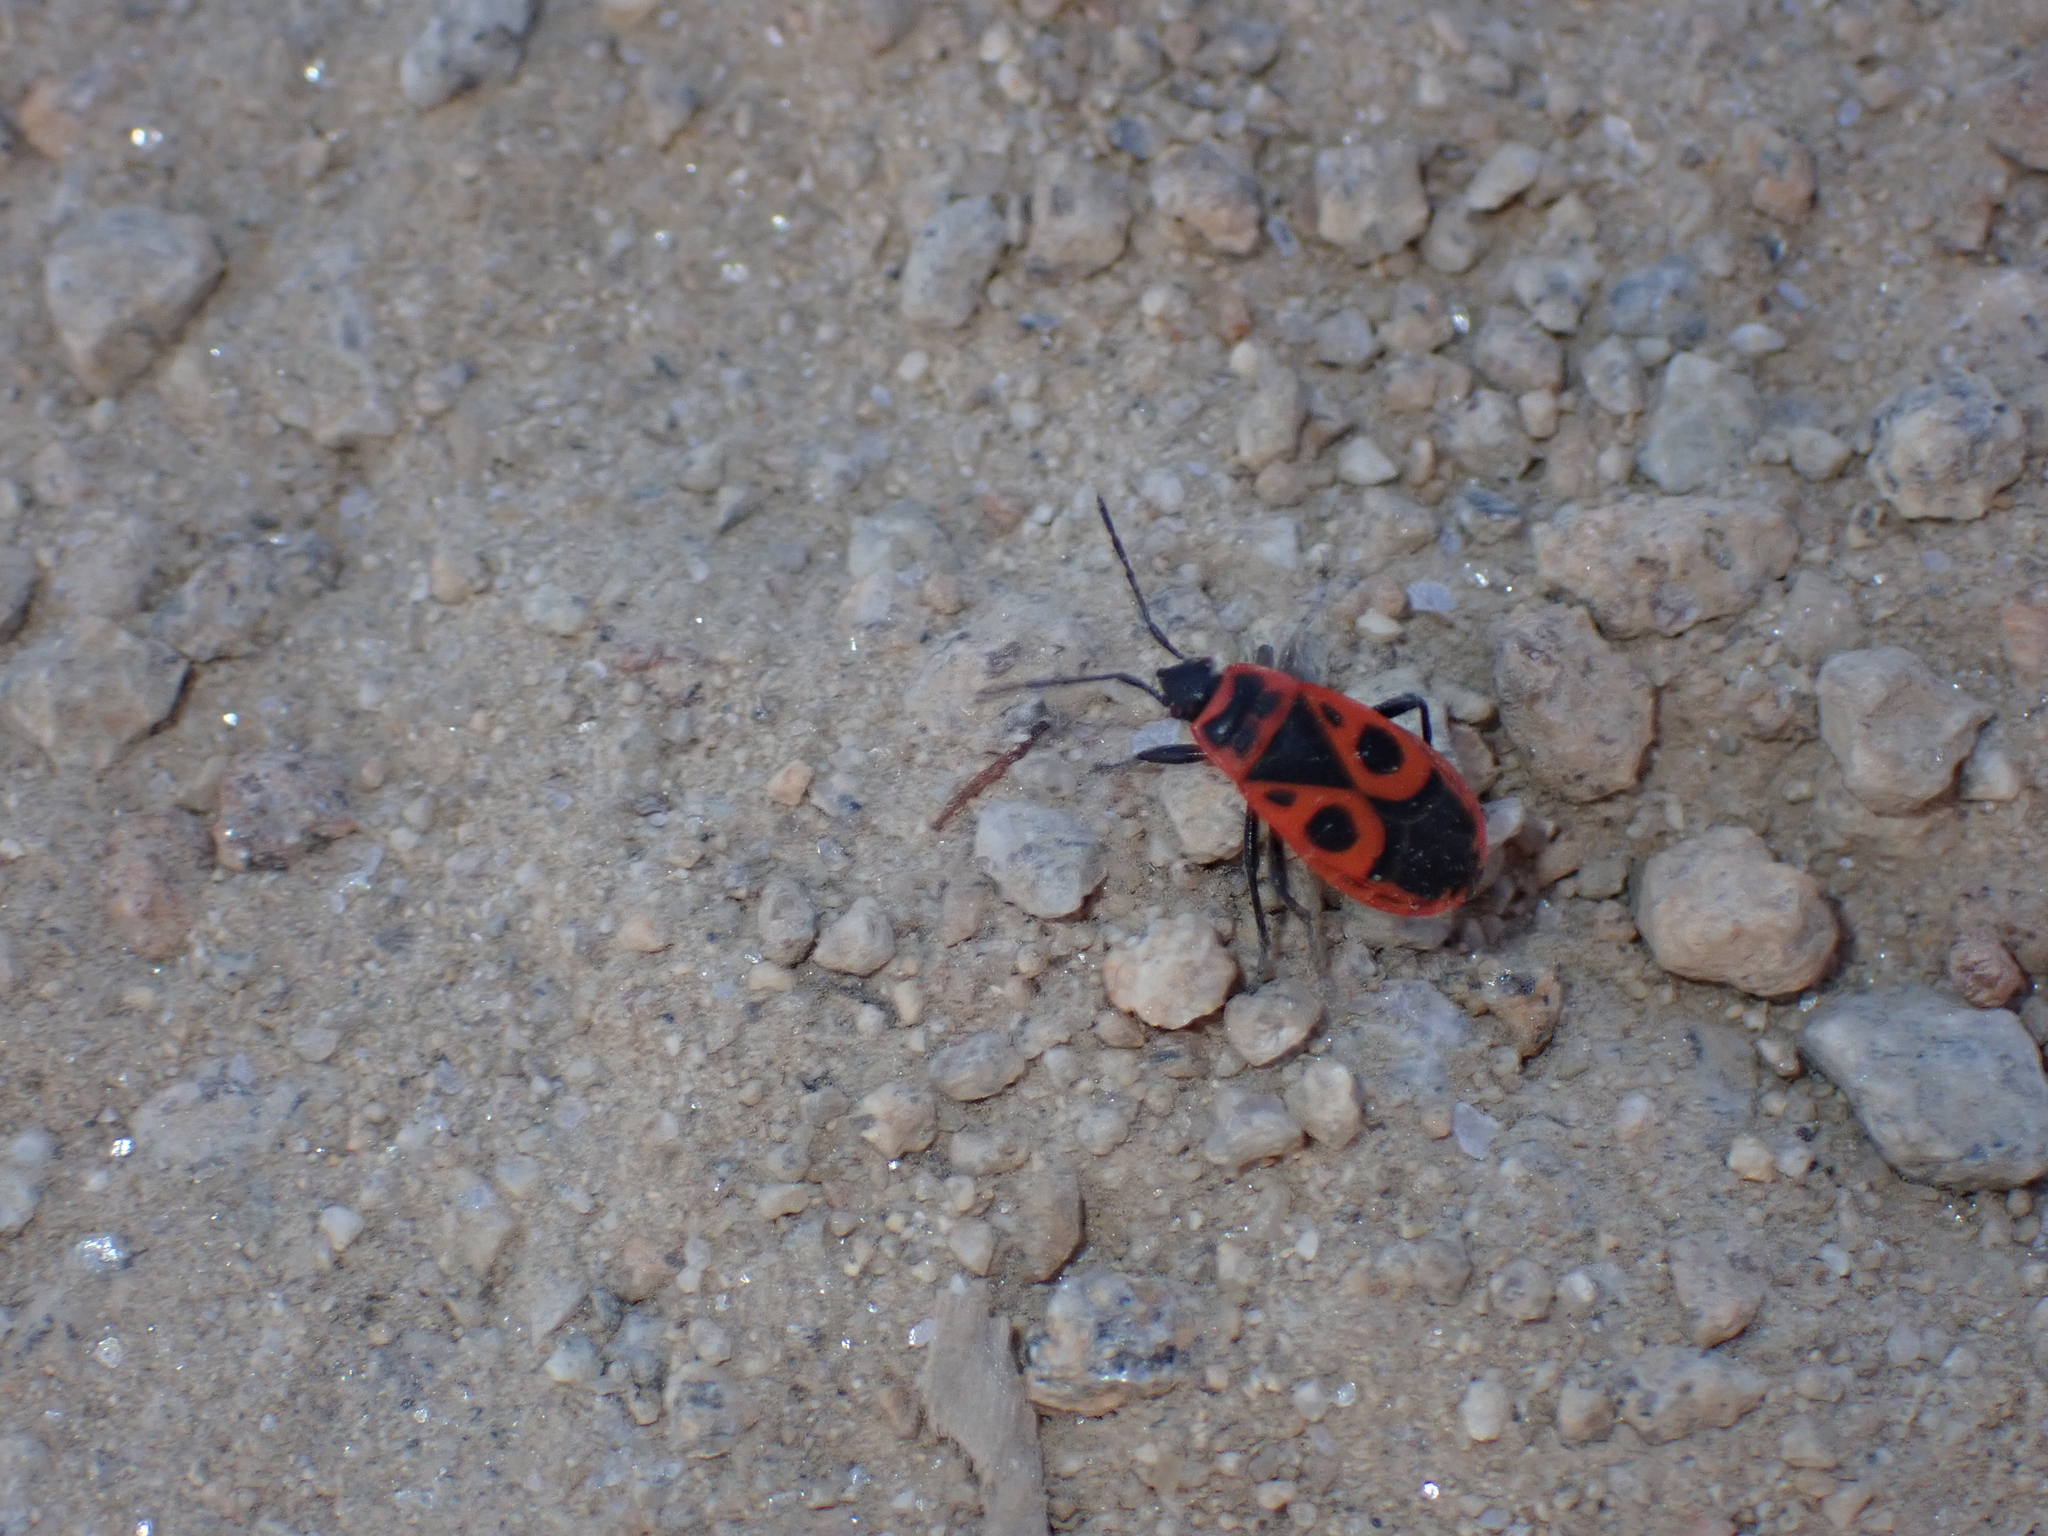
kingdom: Animalia
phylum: Arthropoda
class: Insecta
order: Hemiptera
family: Pyrrhocoridae
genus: Pyrrhocoris
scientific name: Pyrrhocoris apterus
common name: Firebug
